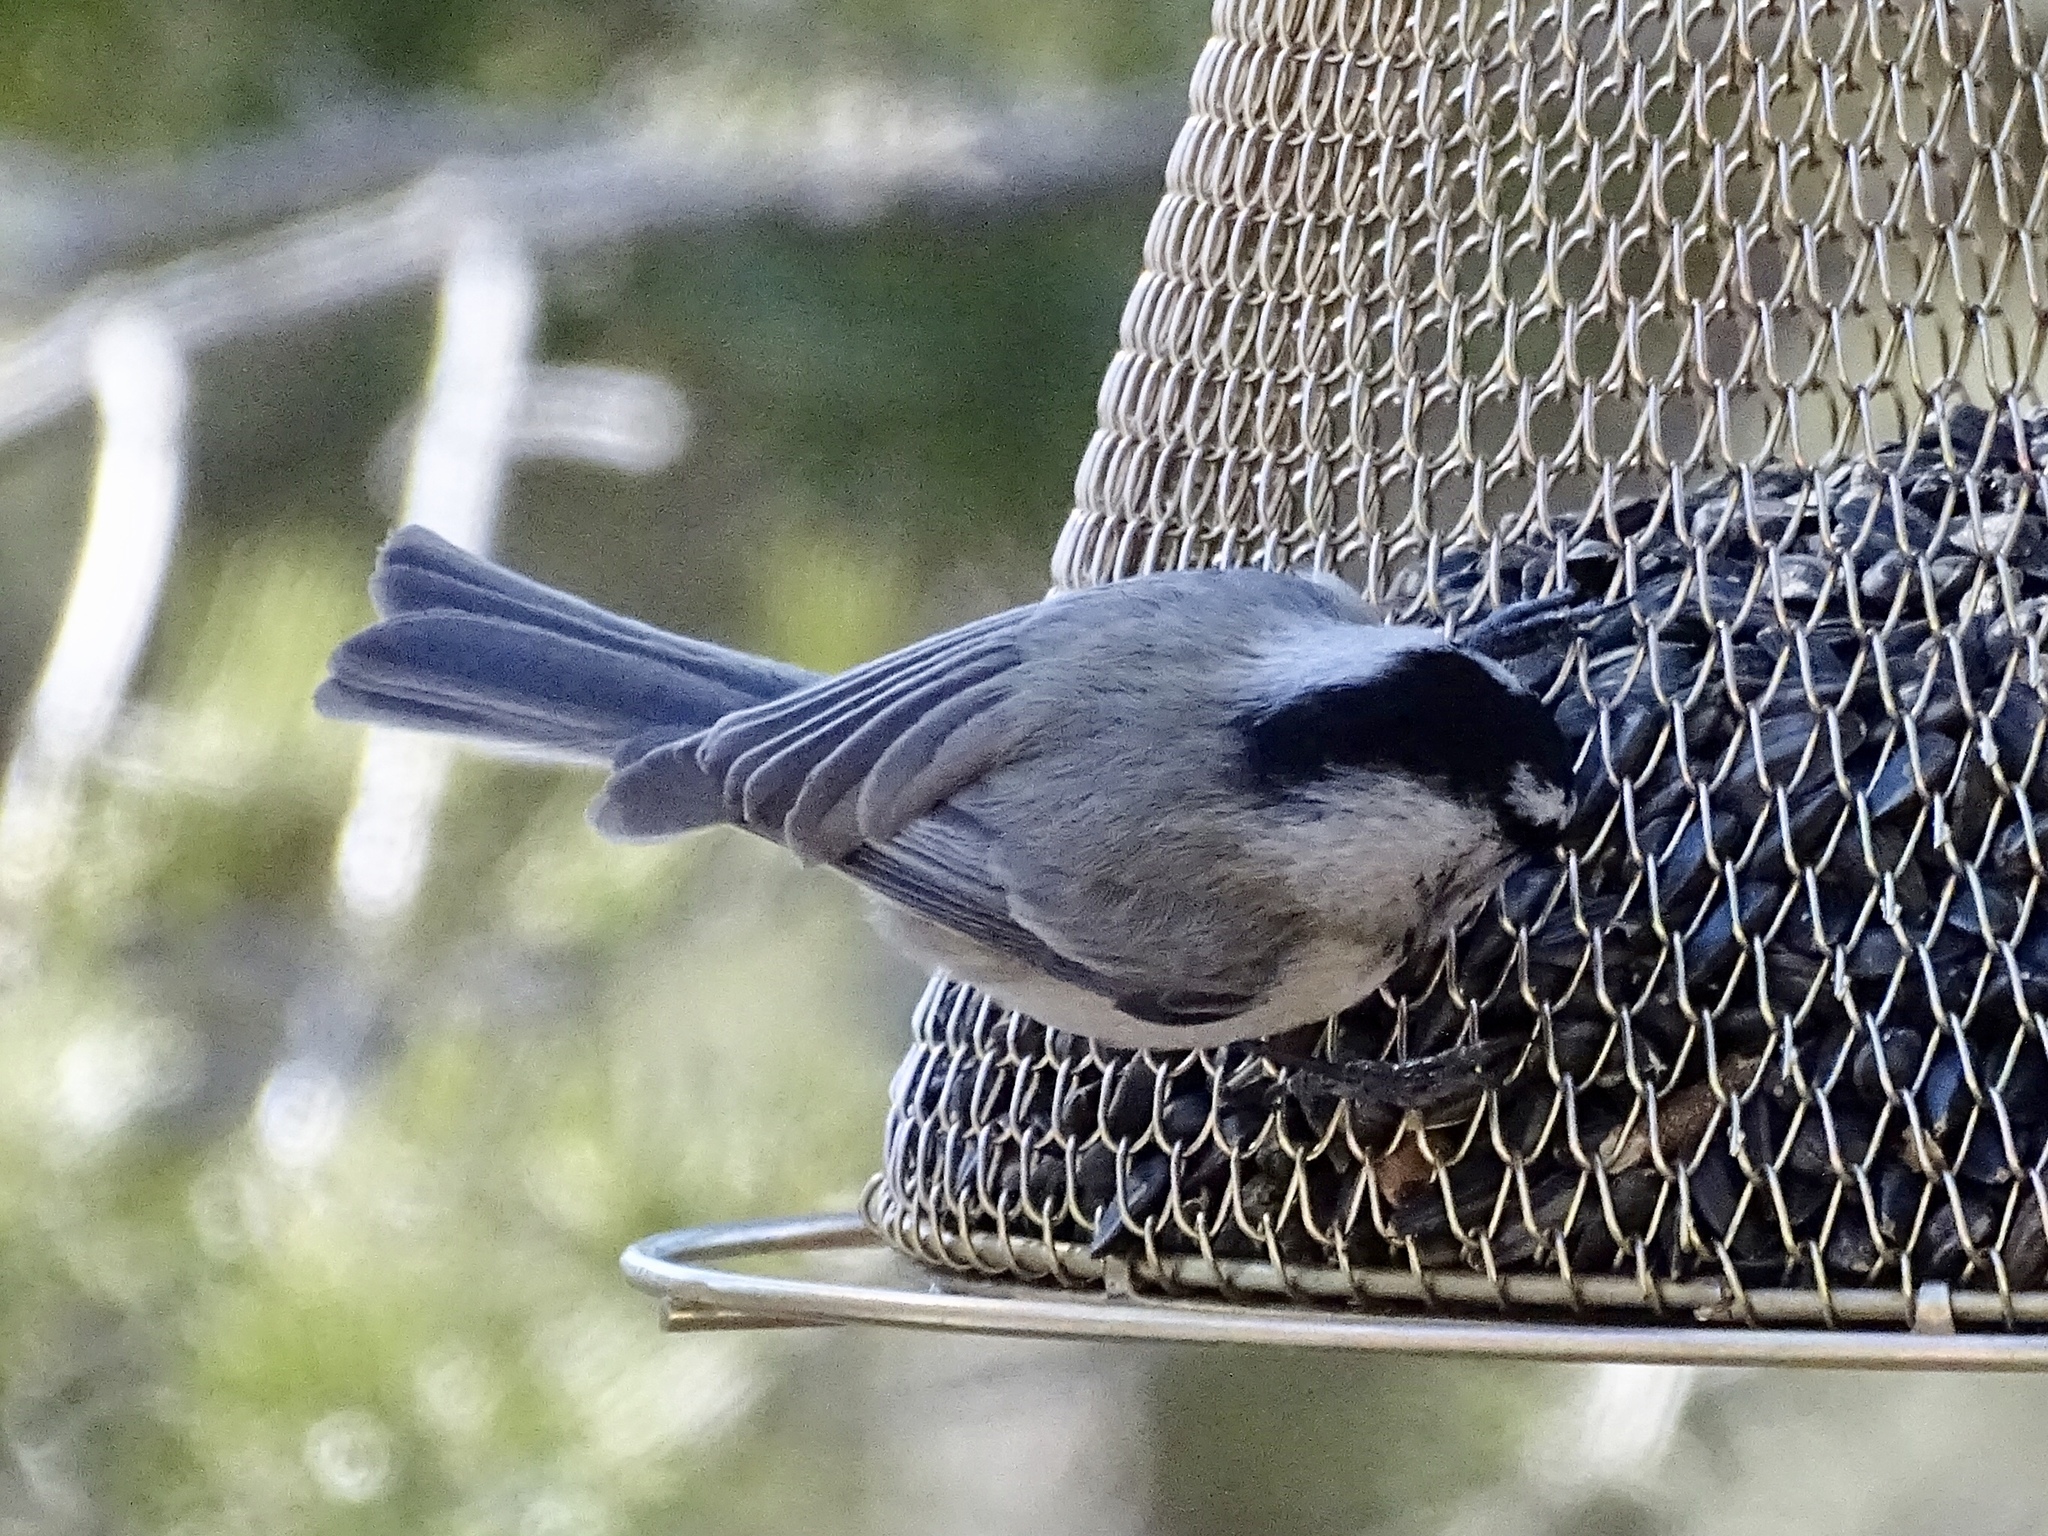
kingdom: Animalia
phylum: Chordata
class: Aves
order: Passeriformes
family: Paridae
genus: Poecile
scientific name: Poecile gambeli
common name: Mountain chickadee
